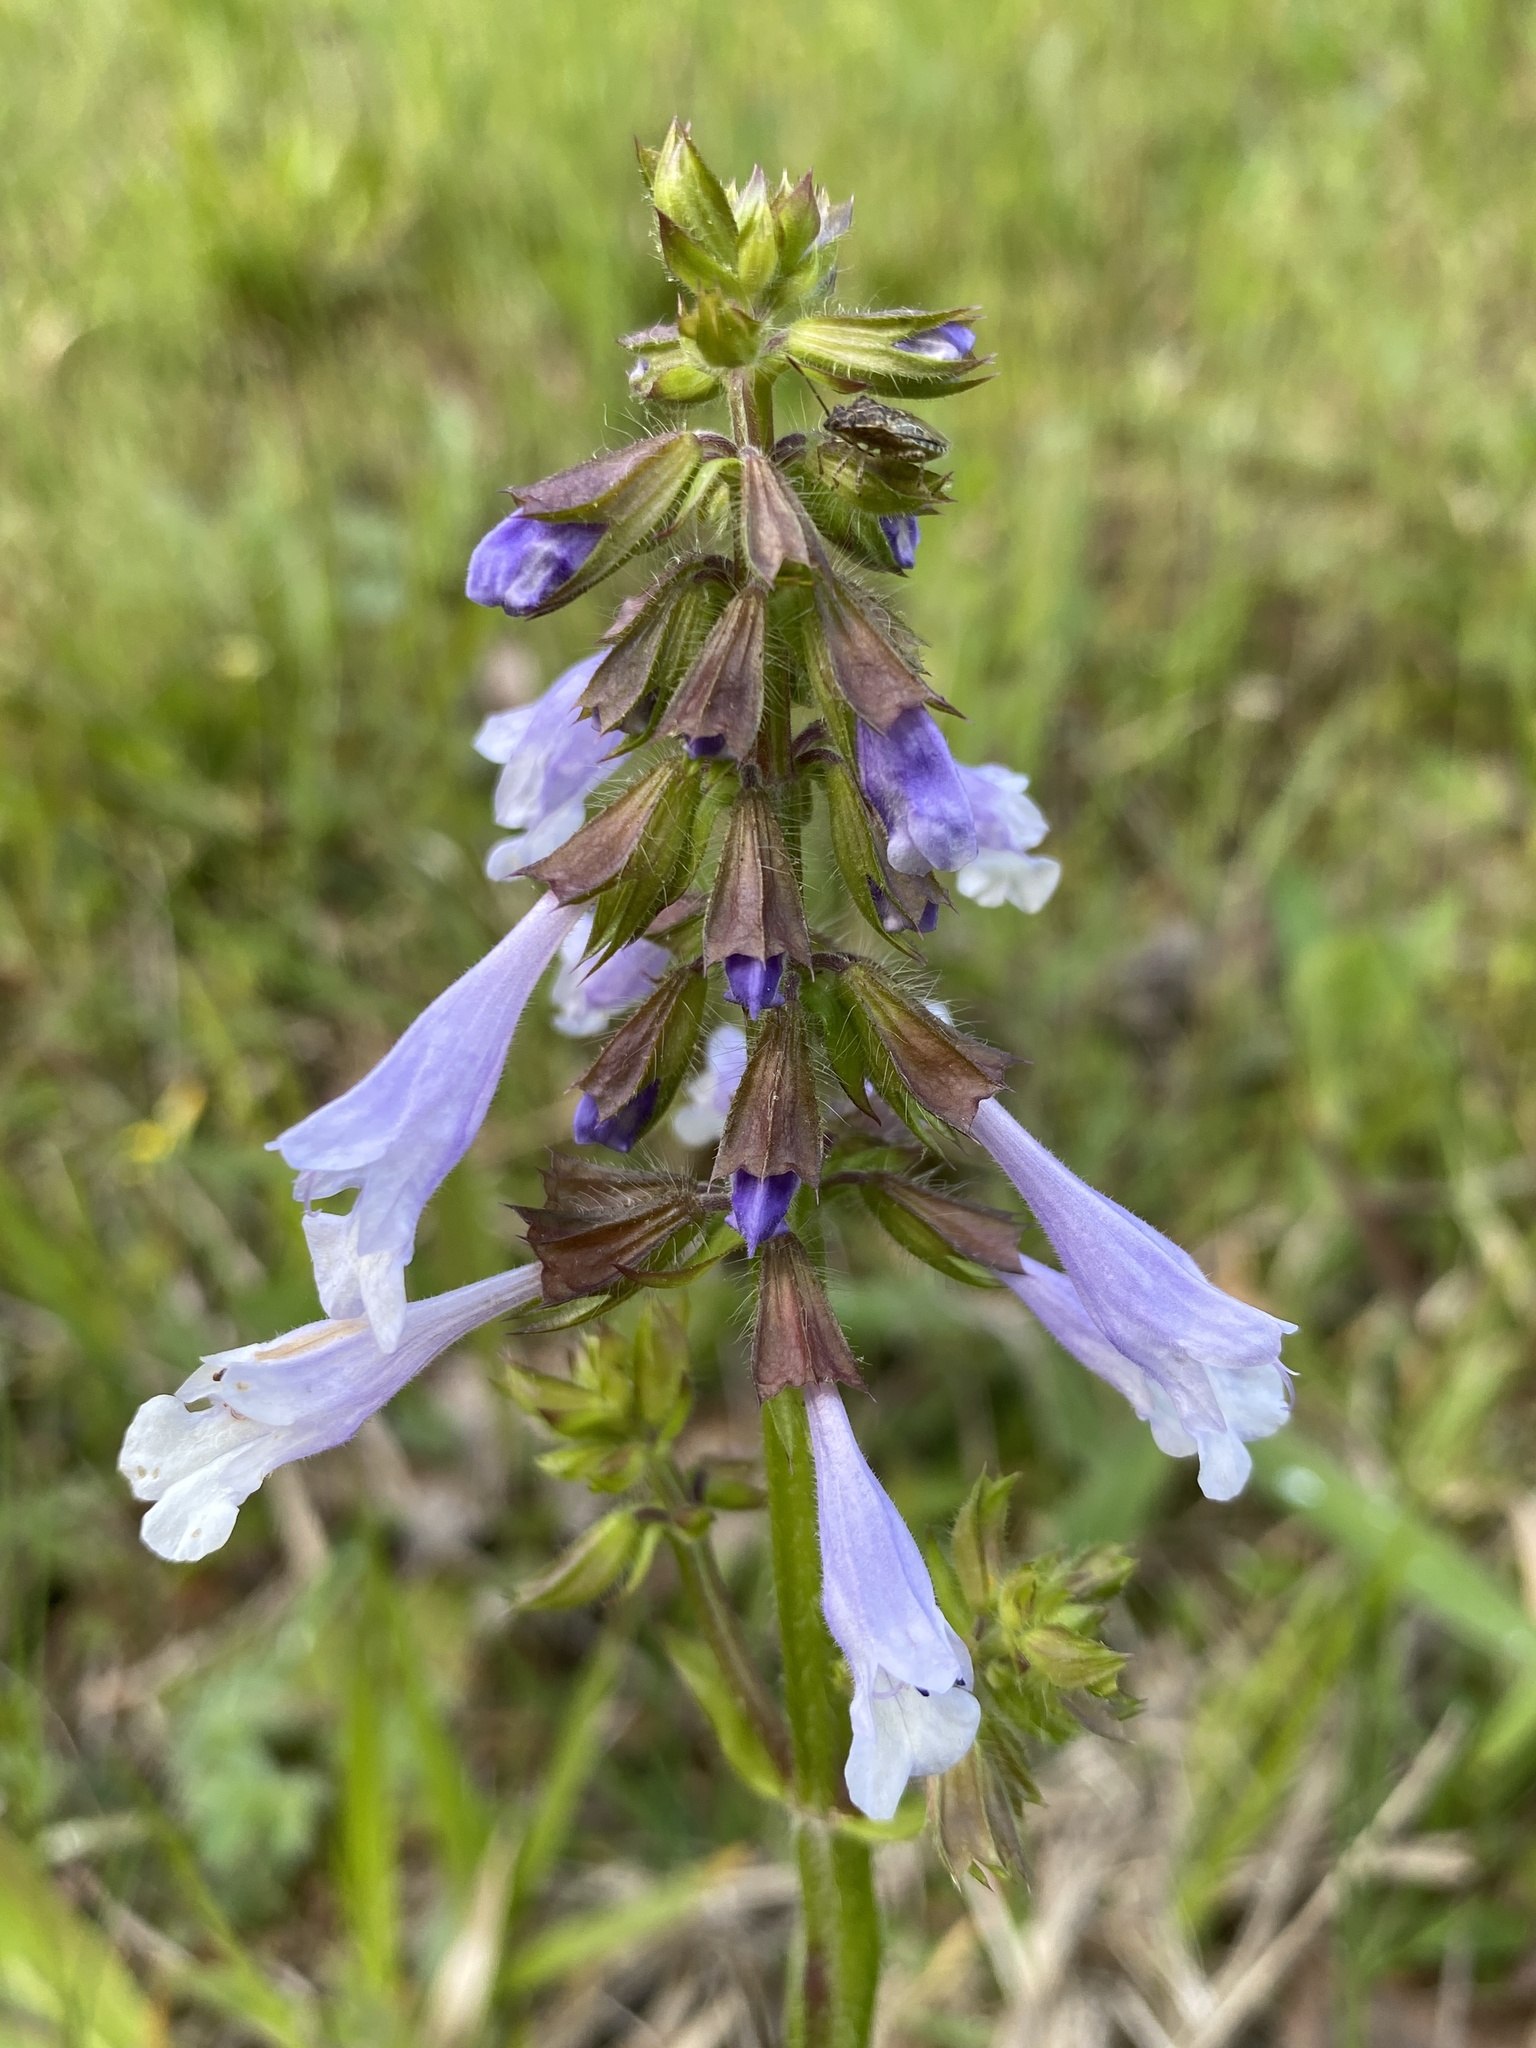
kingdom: Plantae
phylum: Tracheophyta
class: Magnoliopsida
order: Lamiales
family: Lamiaceae
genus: Salvia
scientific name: Salvia lyrata
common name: Cancerweed
